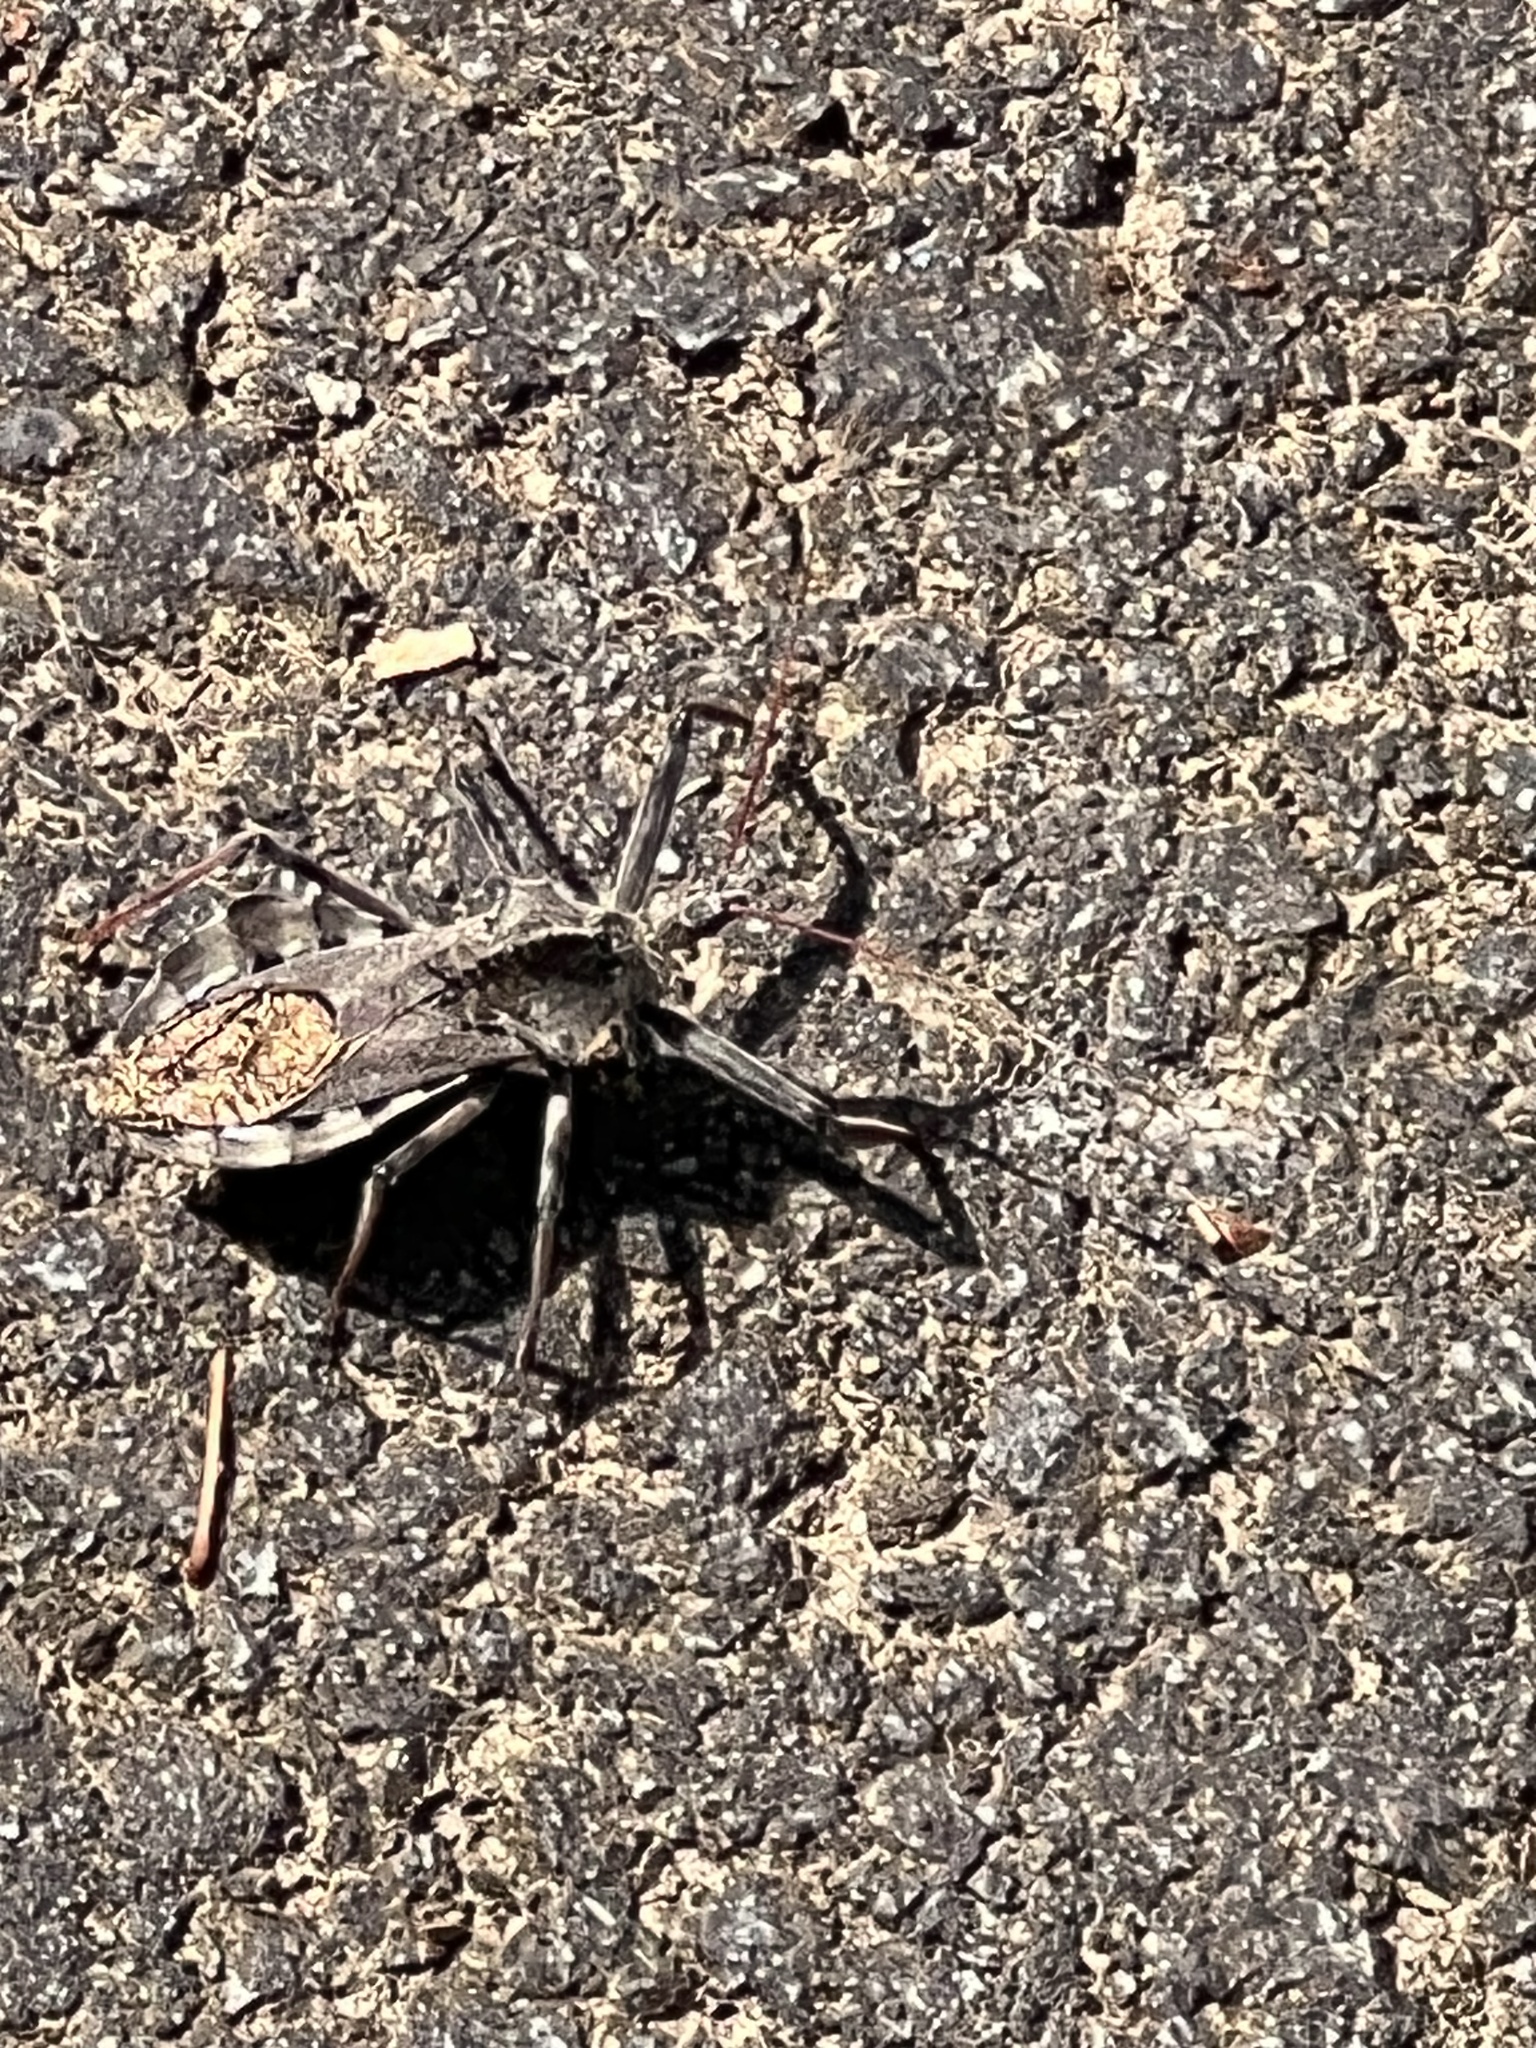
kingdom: Animalia
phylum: Arthropoda
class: Insecta
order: Hemiptera
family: Reduviidae
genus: Arilus
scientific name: Arilus cristatus
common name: North american wheel bug
